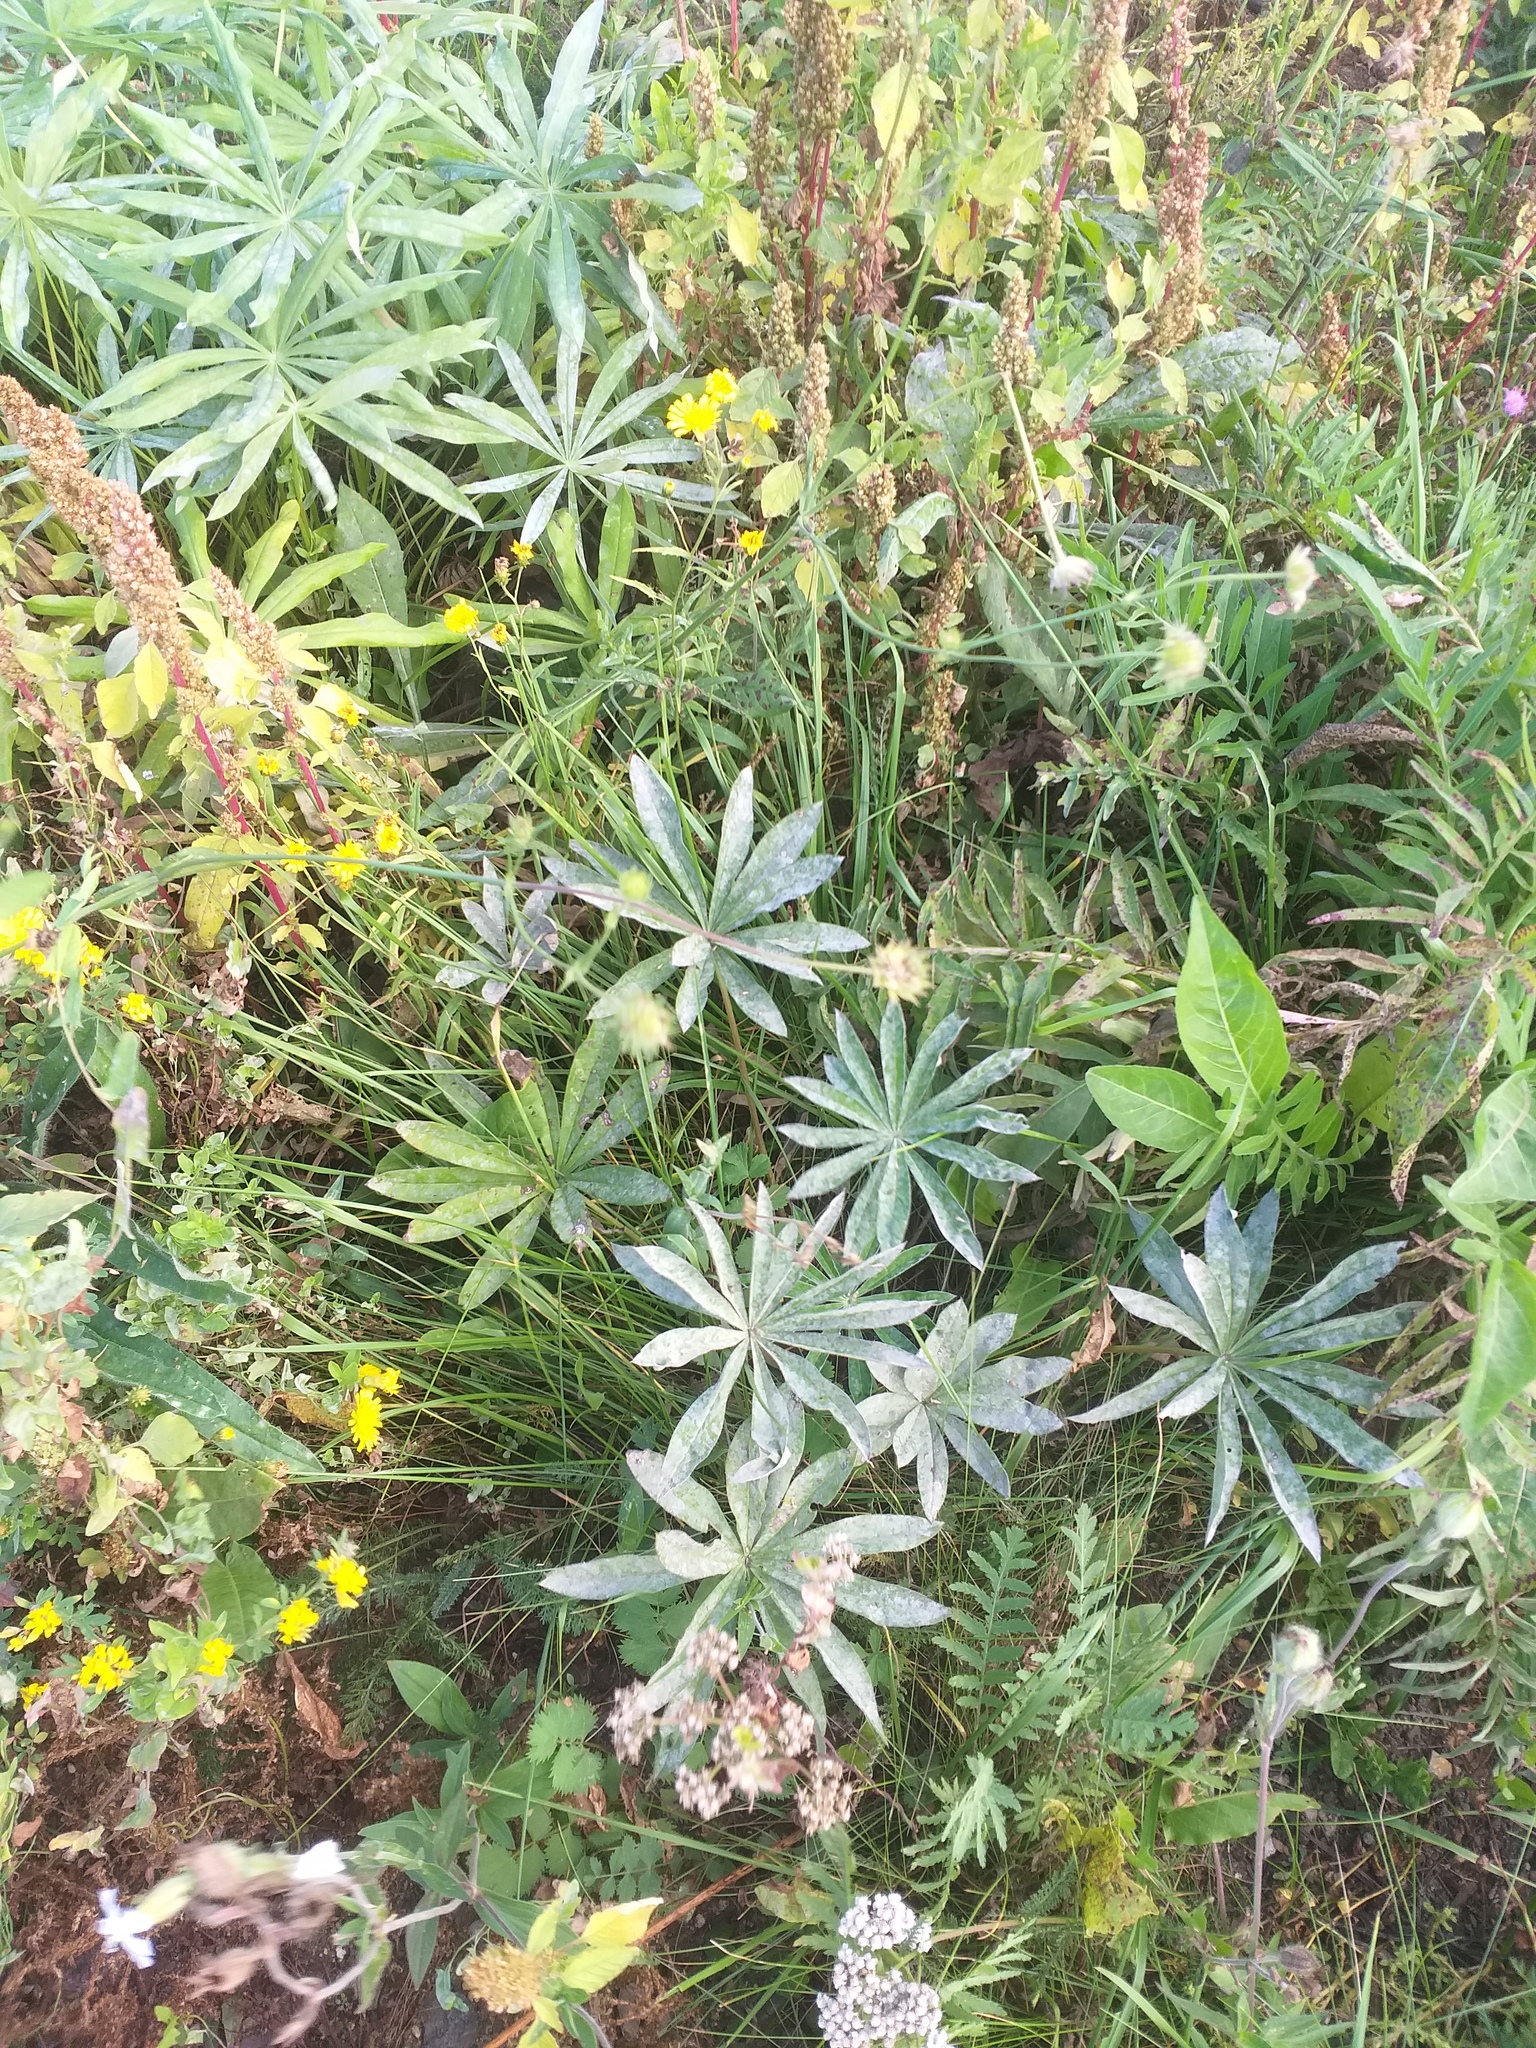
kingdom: Plantae
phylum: Tracheophyta
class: Magnoliopsida
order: Fabales
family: Fabaceae
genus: Lupinus
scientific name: Lupinus polyphyllus
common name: Garden lupin
